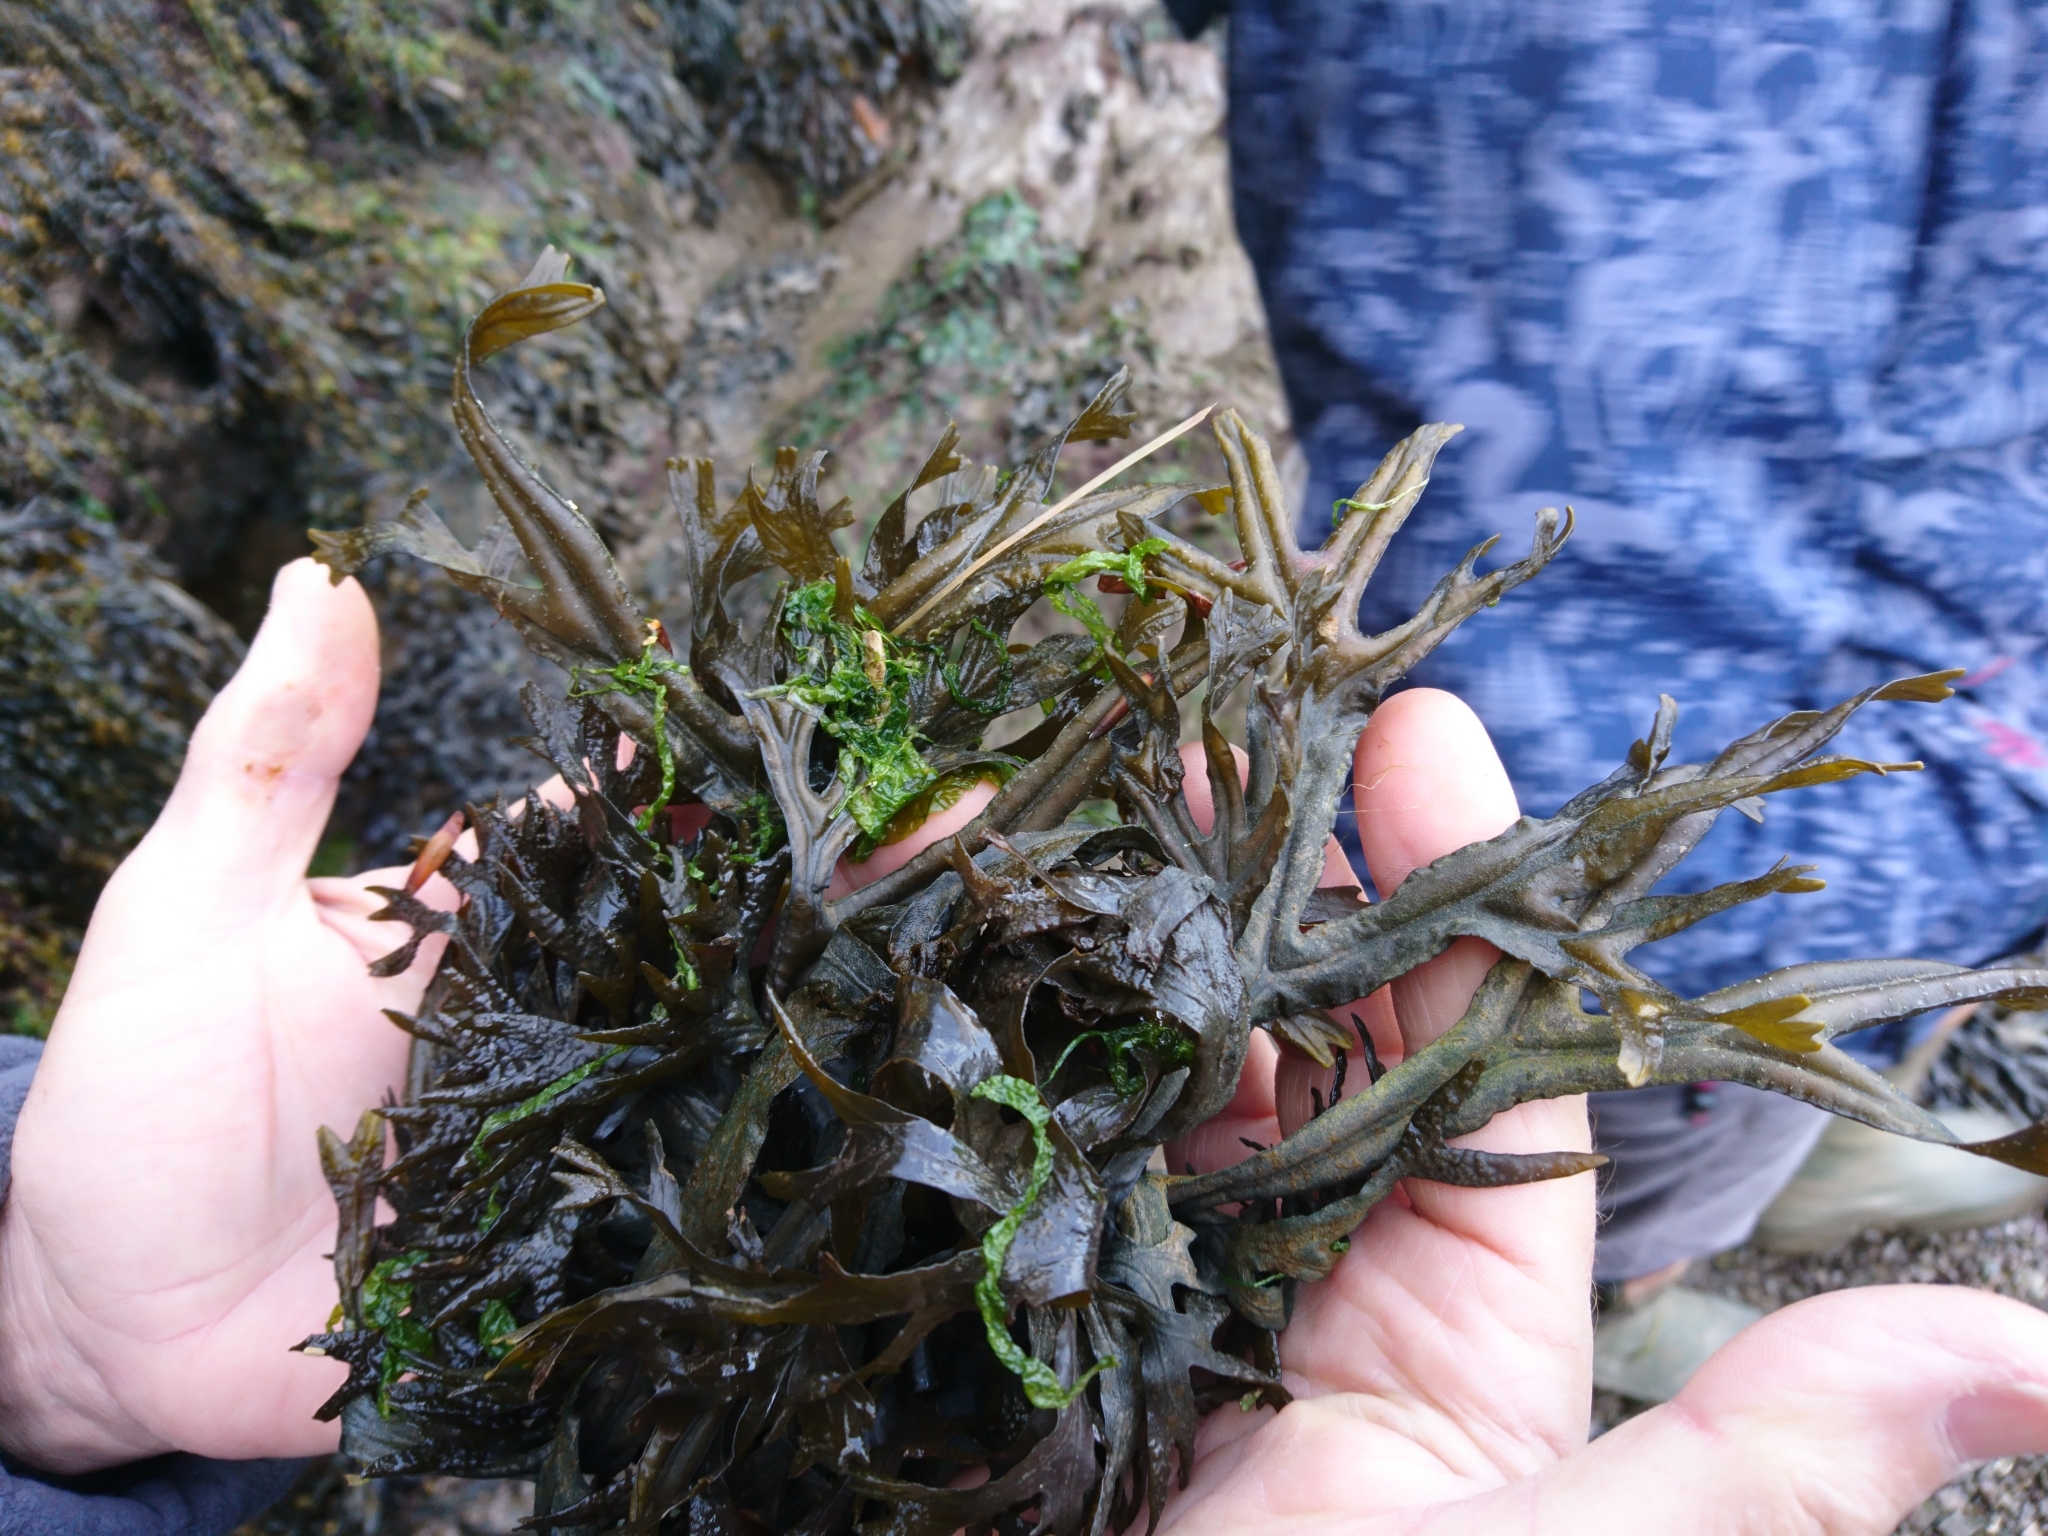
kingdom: Chromista
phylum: Ochrophyta
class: Phaeophyceae
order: Fucales
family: Fucaceae
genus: Fucus
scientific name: Fucus ceranoides
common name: Horned wrack
